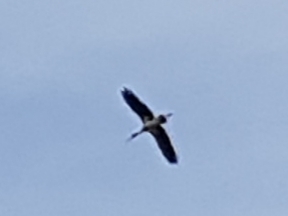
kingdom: Animalia
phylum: Chordata
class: Aves
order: Ciconiiformes
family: Ciconiidae
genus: Ciconia
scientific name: Ciconia nigra
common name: Black stork
